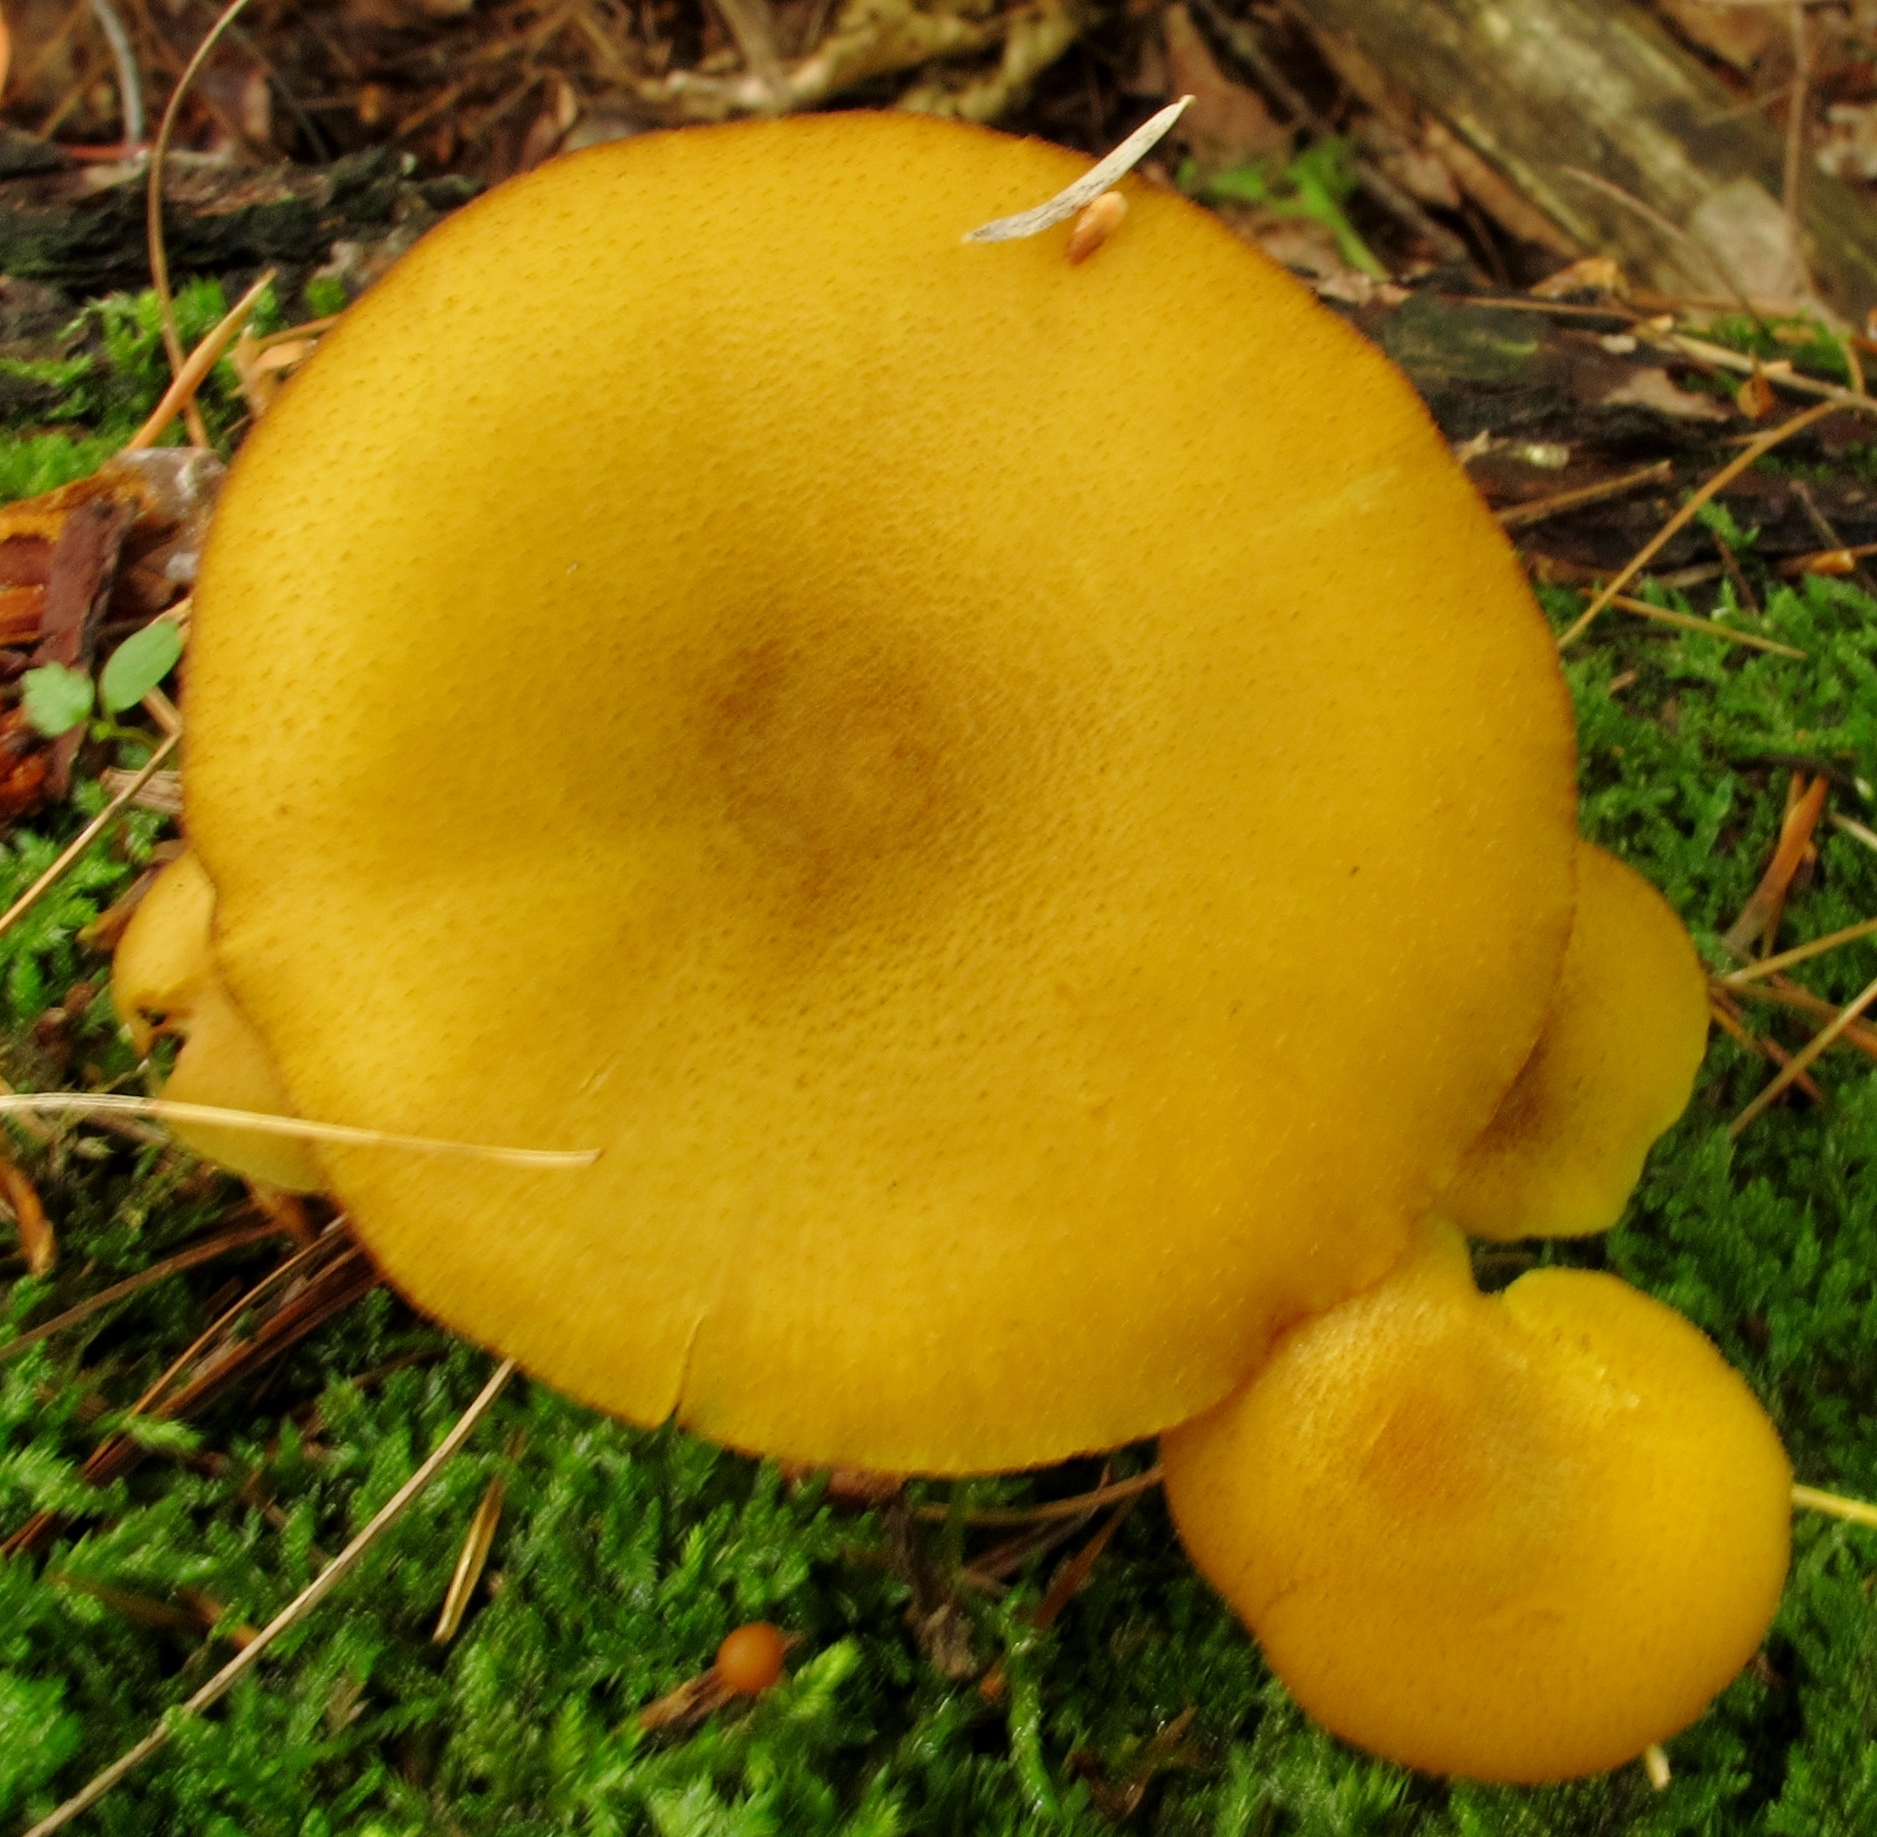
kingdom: Fungi
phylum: Basidiomycota
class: Agaricomycetes
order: Agaricales
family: Tricholomataceae
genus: Tricholomopsis
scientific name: Tricholomopsis decora
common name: Prunes and custard
